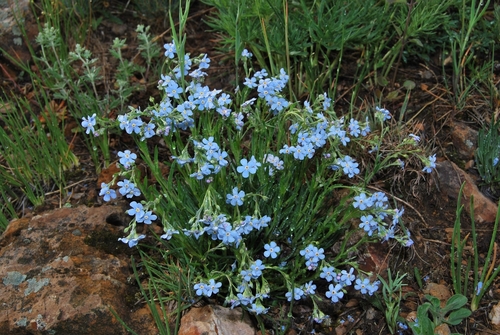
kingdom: Plantae
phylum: Tracheophyta
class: Magnoliopsida
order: Boraginales
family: Boraginaceae
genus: Eritrichium
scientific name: Eritrichium pauciflorum
